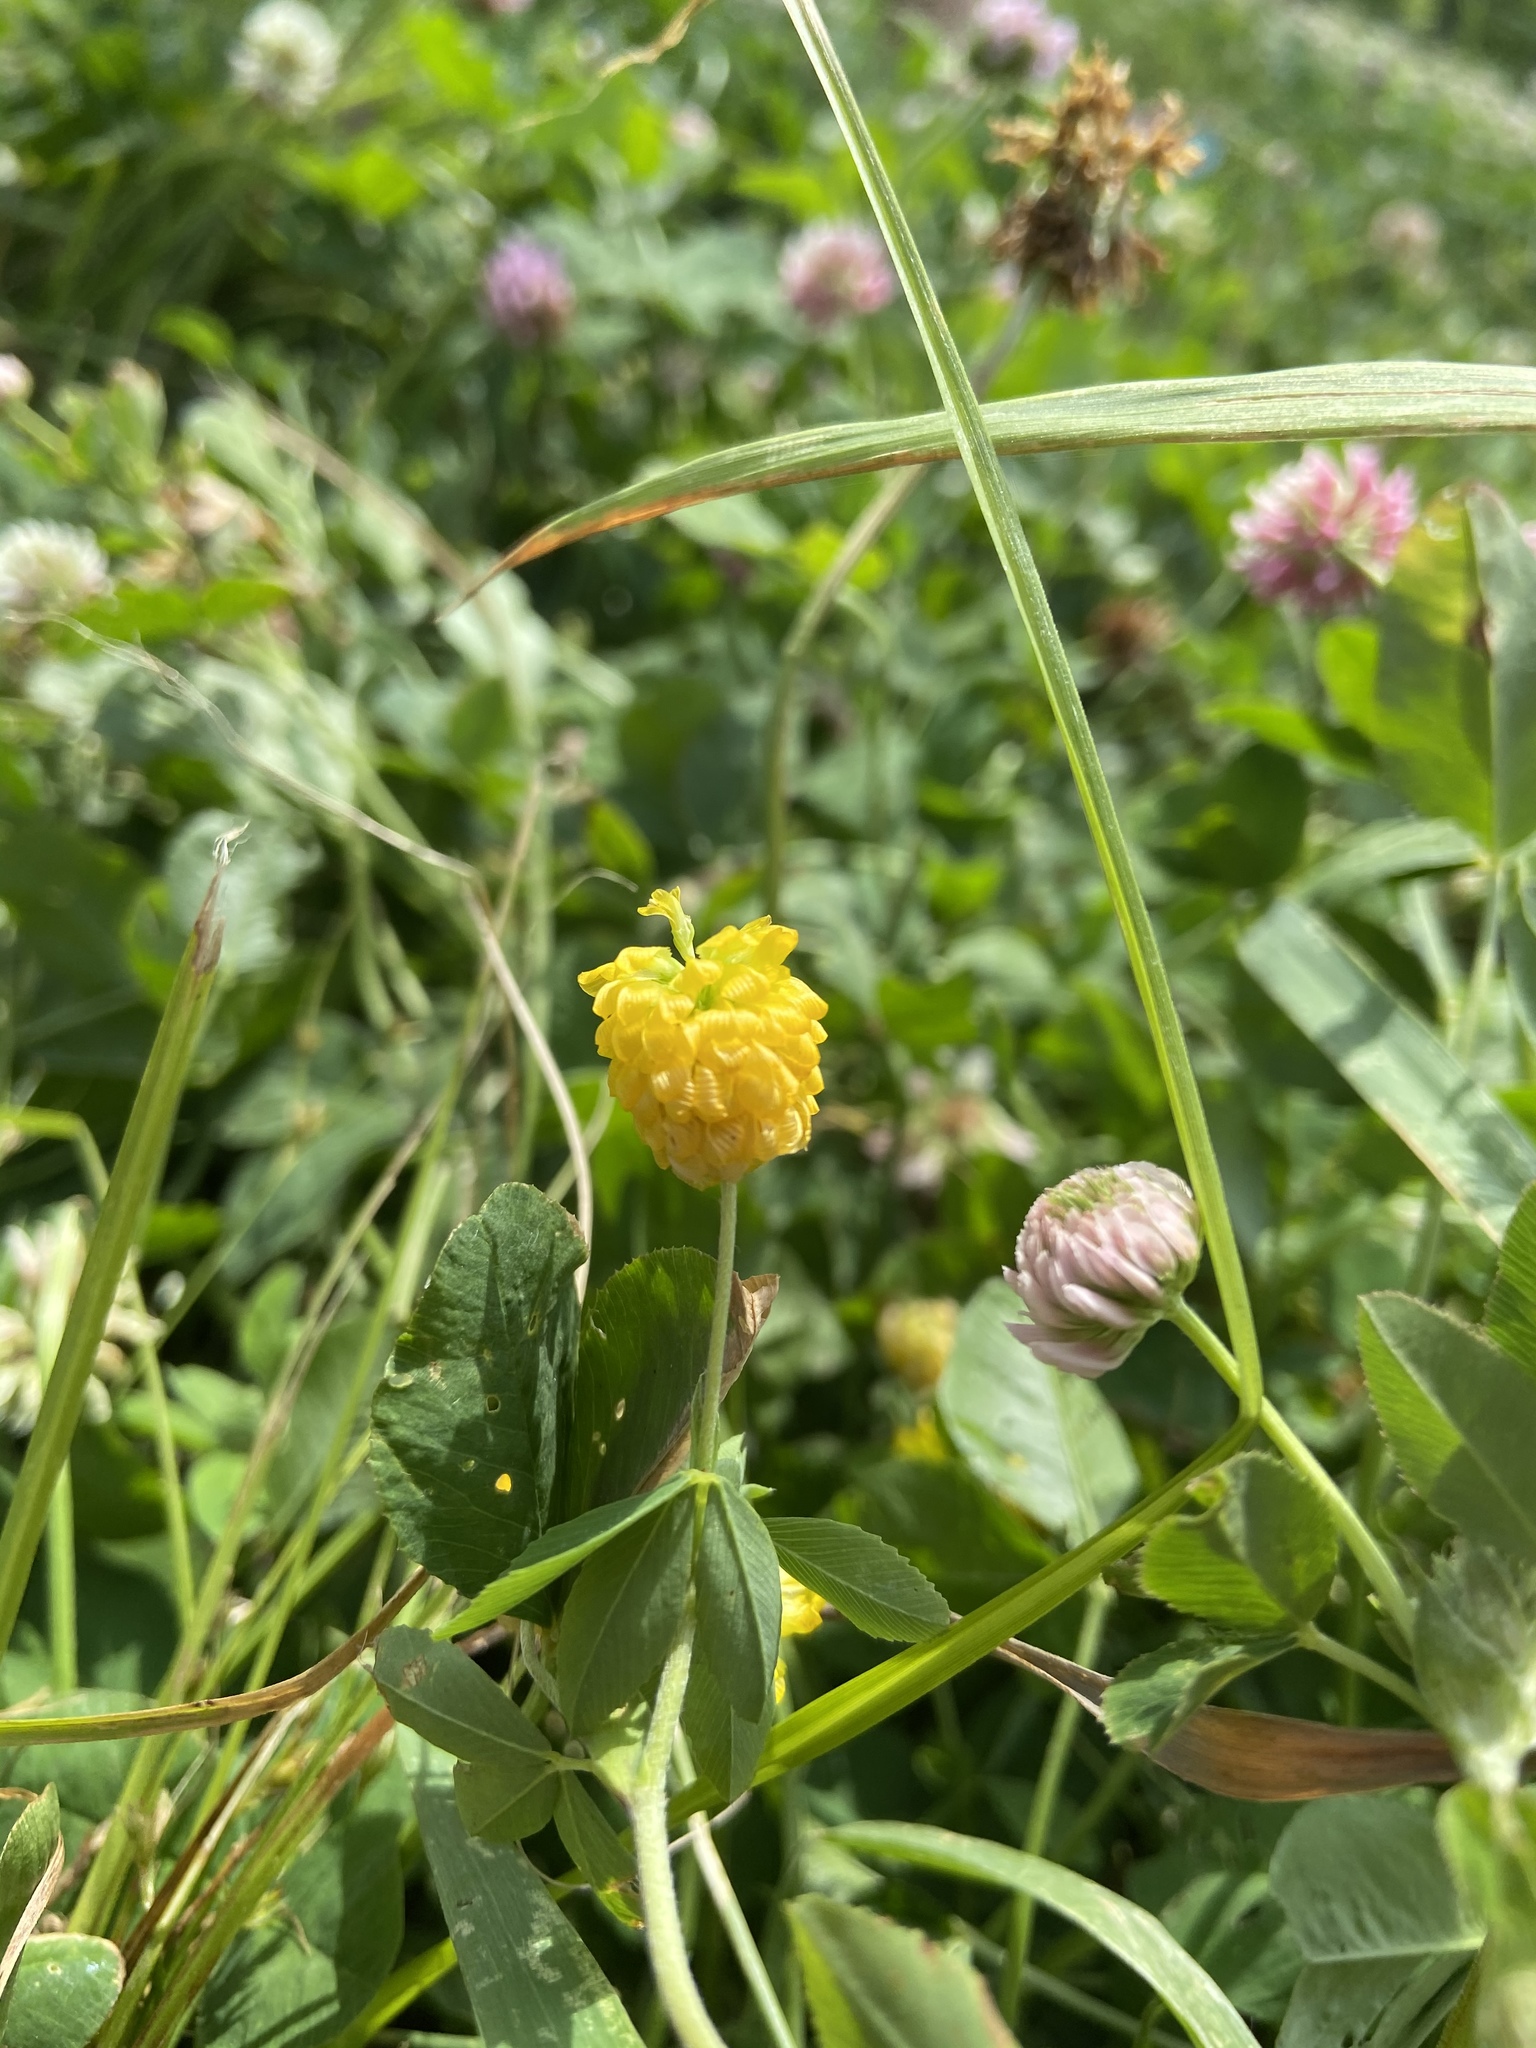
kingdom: Plantae
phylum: Tracheophyta
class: Magnoliopsida
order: Fabales
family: Fabaceae
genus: Trifolium
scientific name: Trifolium aureum
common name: Golden clover
